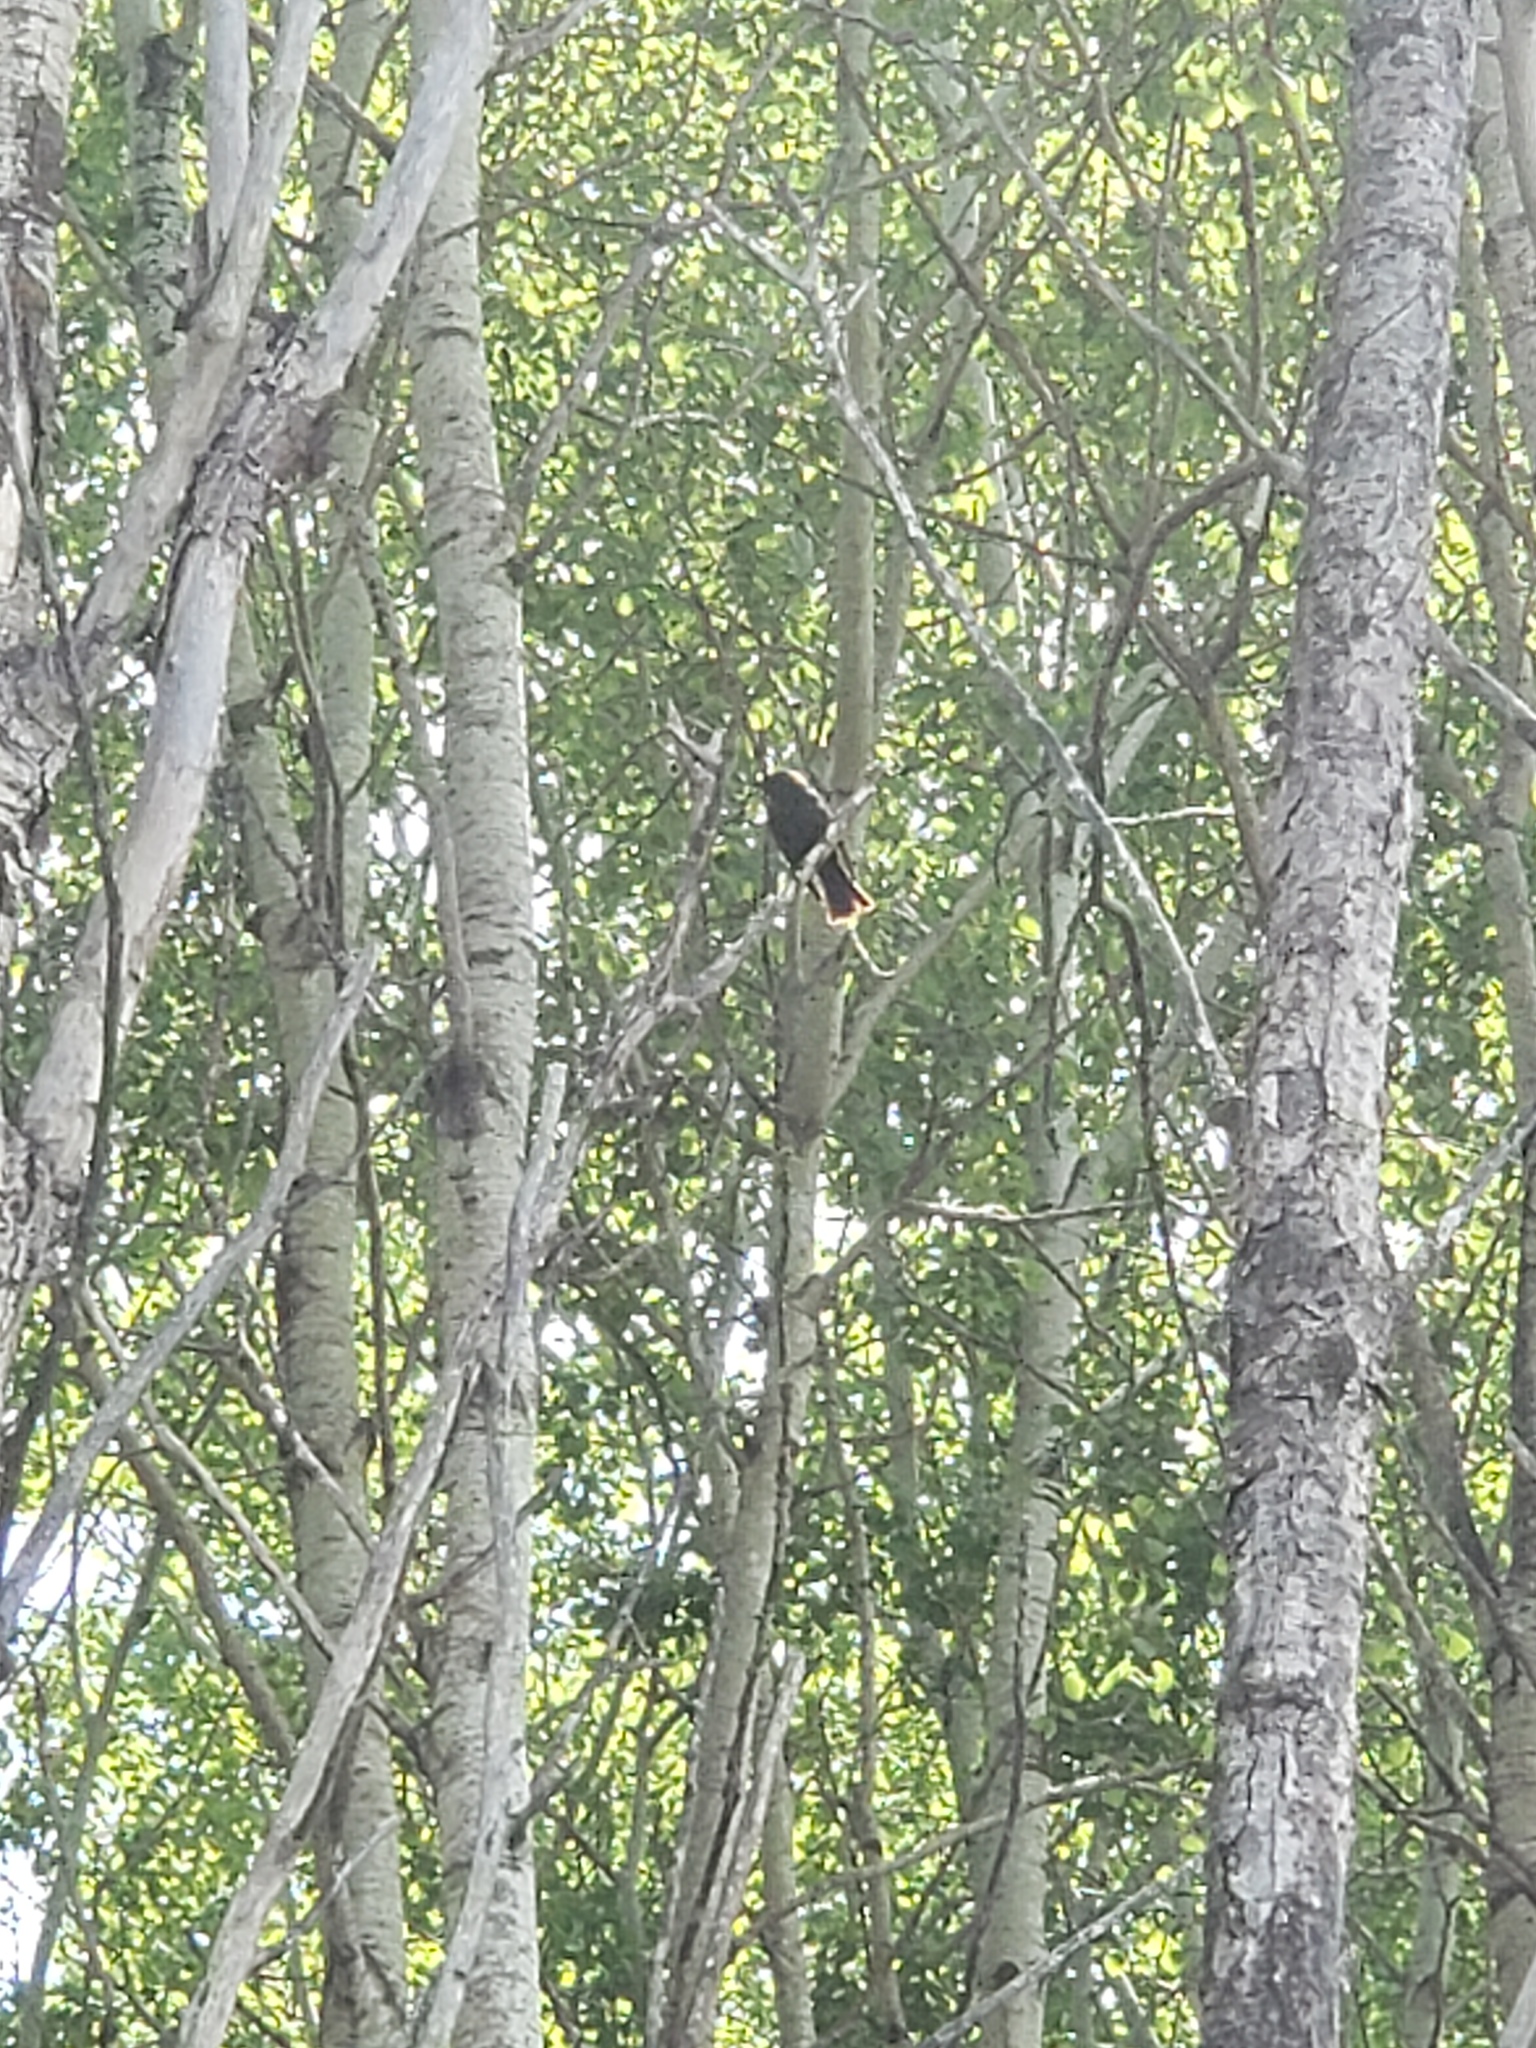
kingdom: Animalia
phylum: Chordata
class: Aves
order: Passeriformes
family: Icteridae
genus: Molothrus
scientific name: Molothrus ater
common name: Brown-headed cowbird
